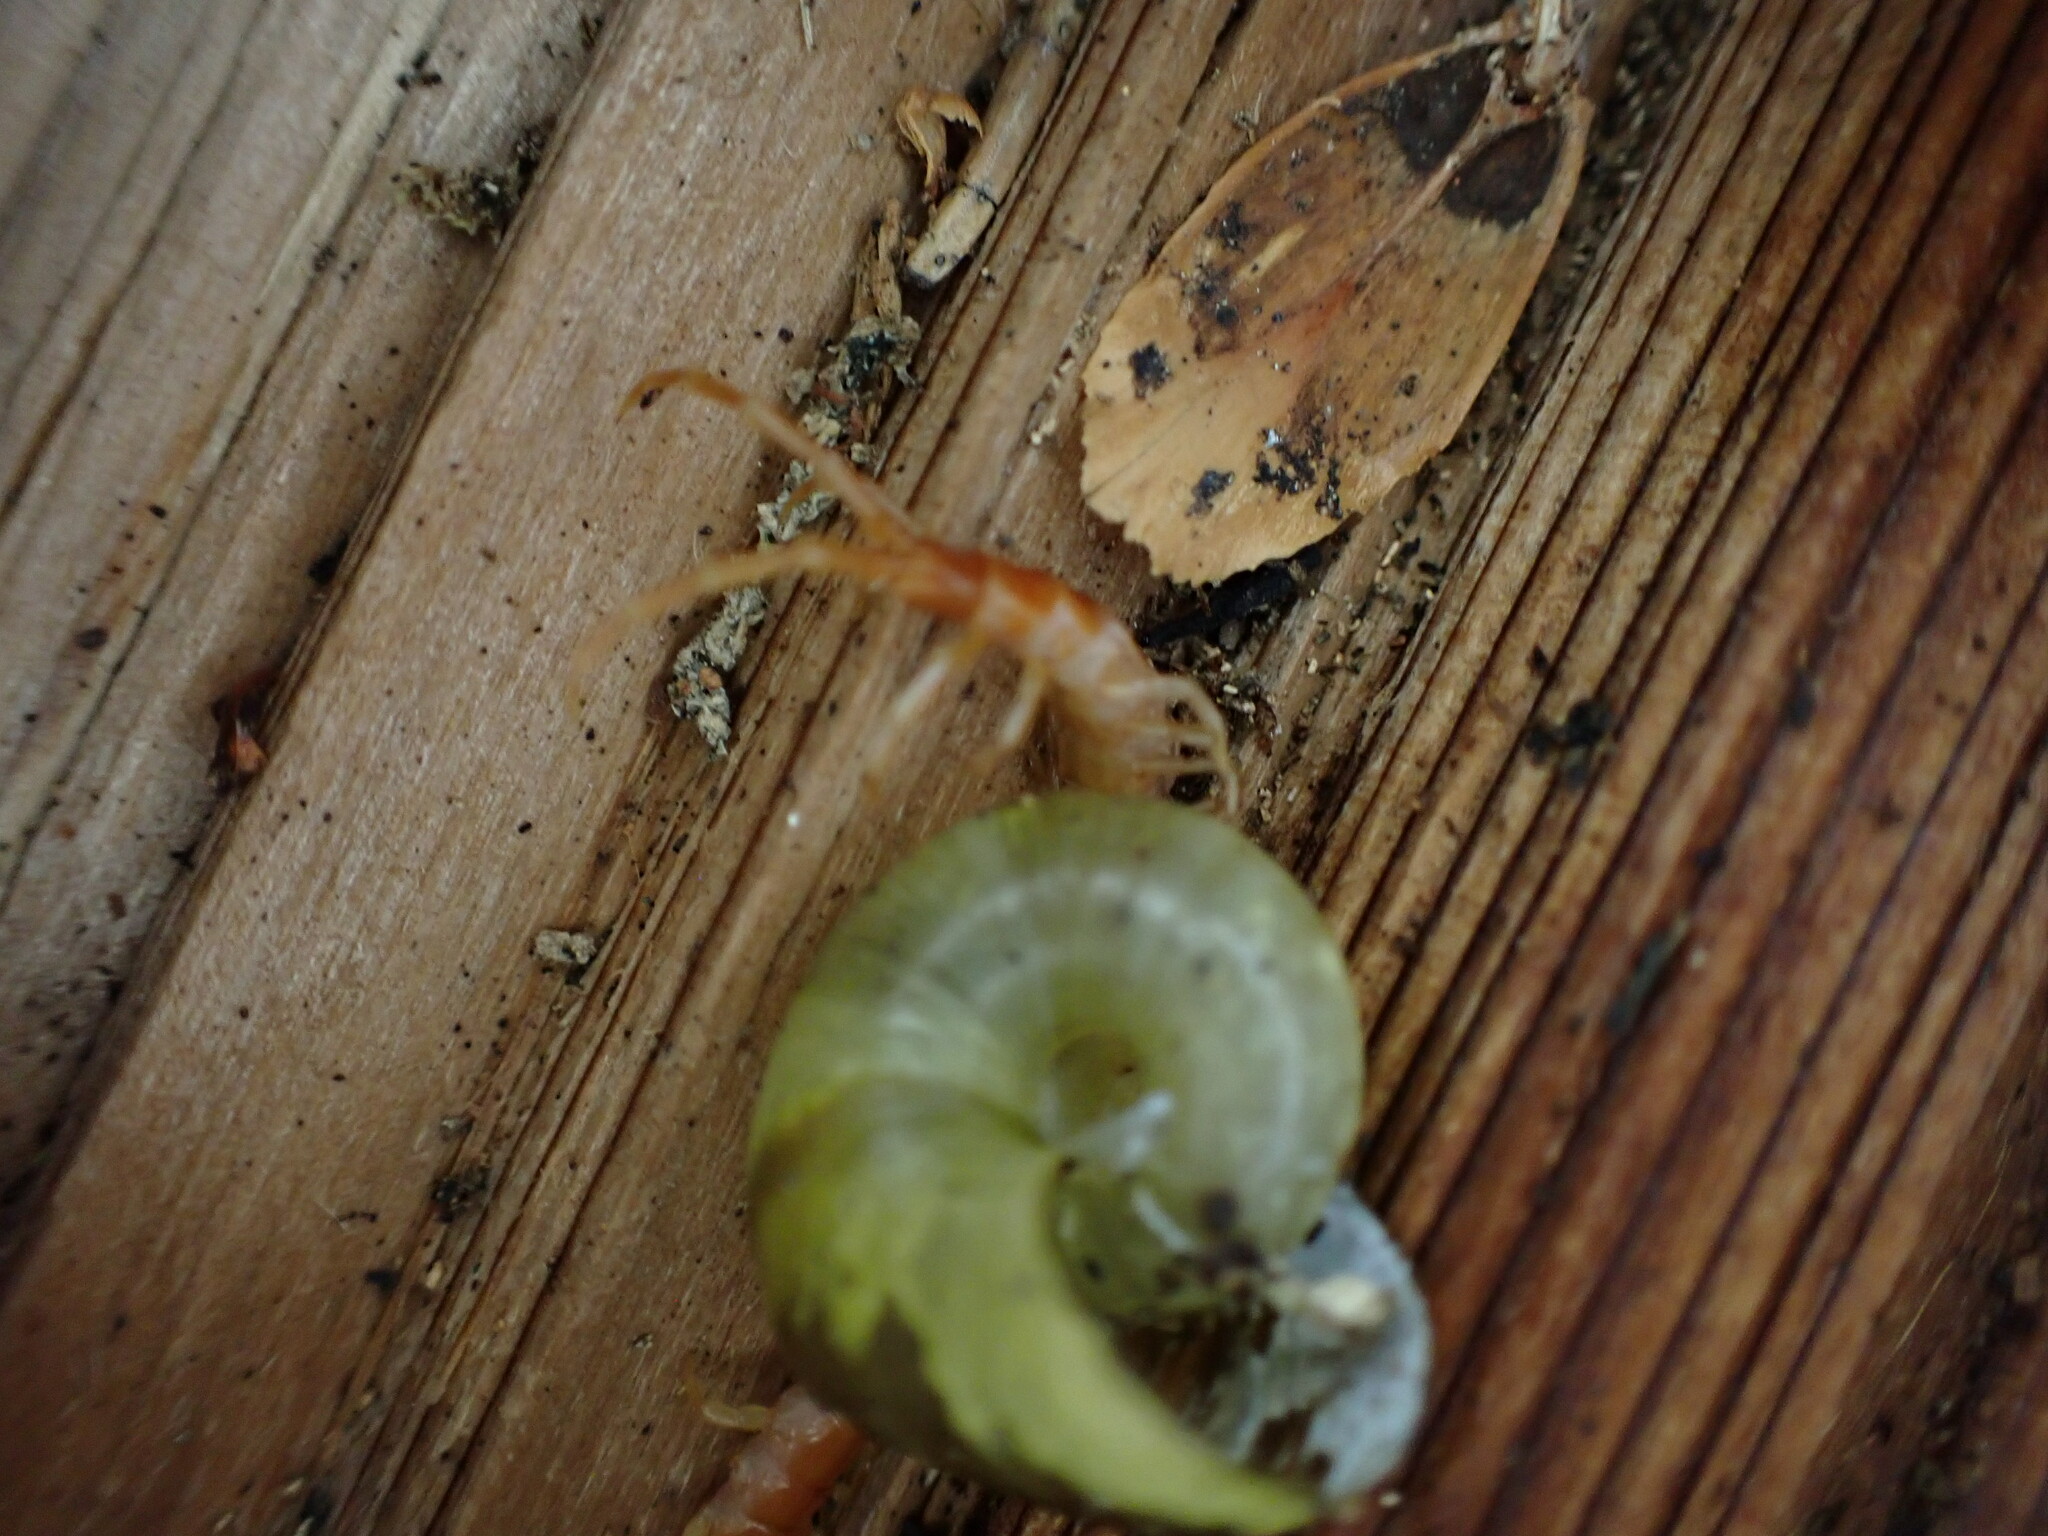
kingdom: Animalia
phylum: Mollusca
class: Gastropoda
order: Stylommatophora
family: Haplotrematidae
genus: Haplotrema
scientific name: Haplotrema vancouverense
